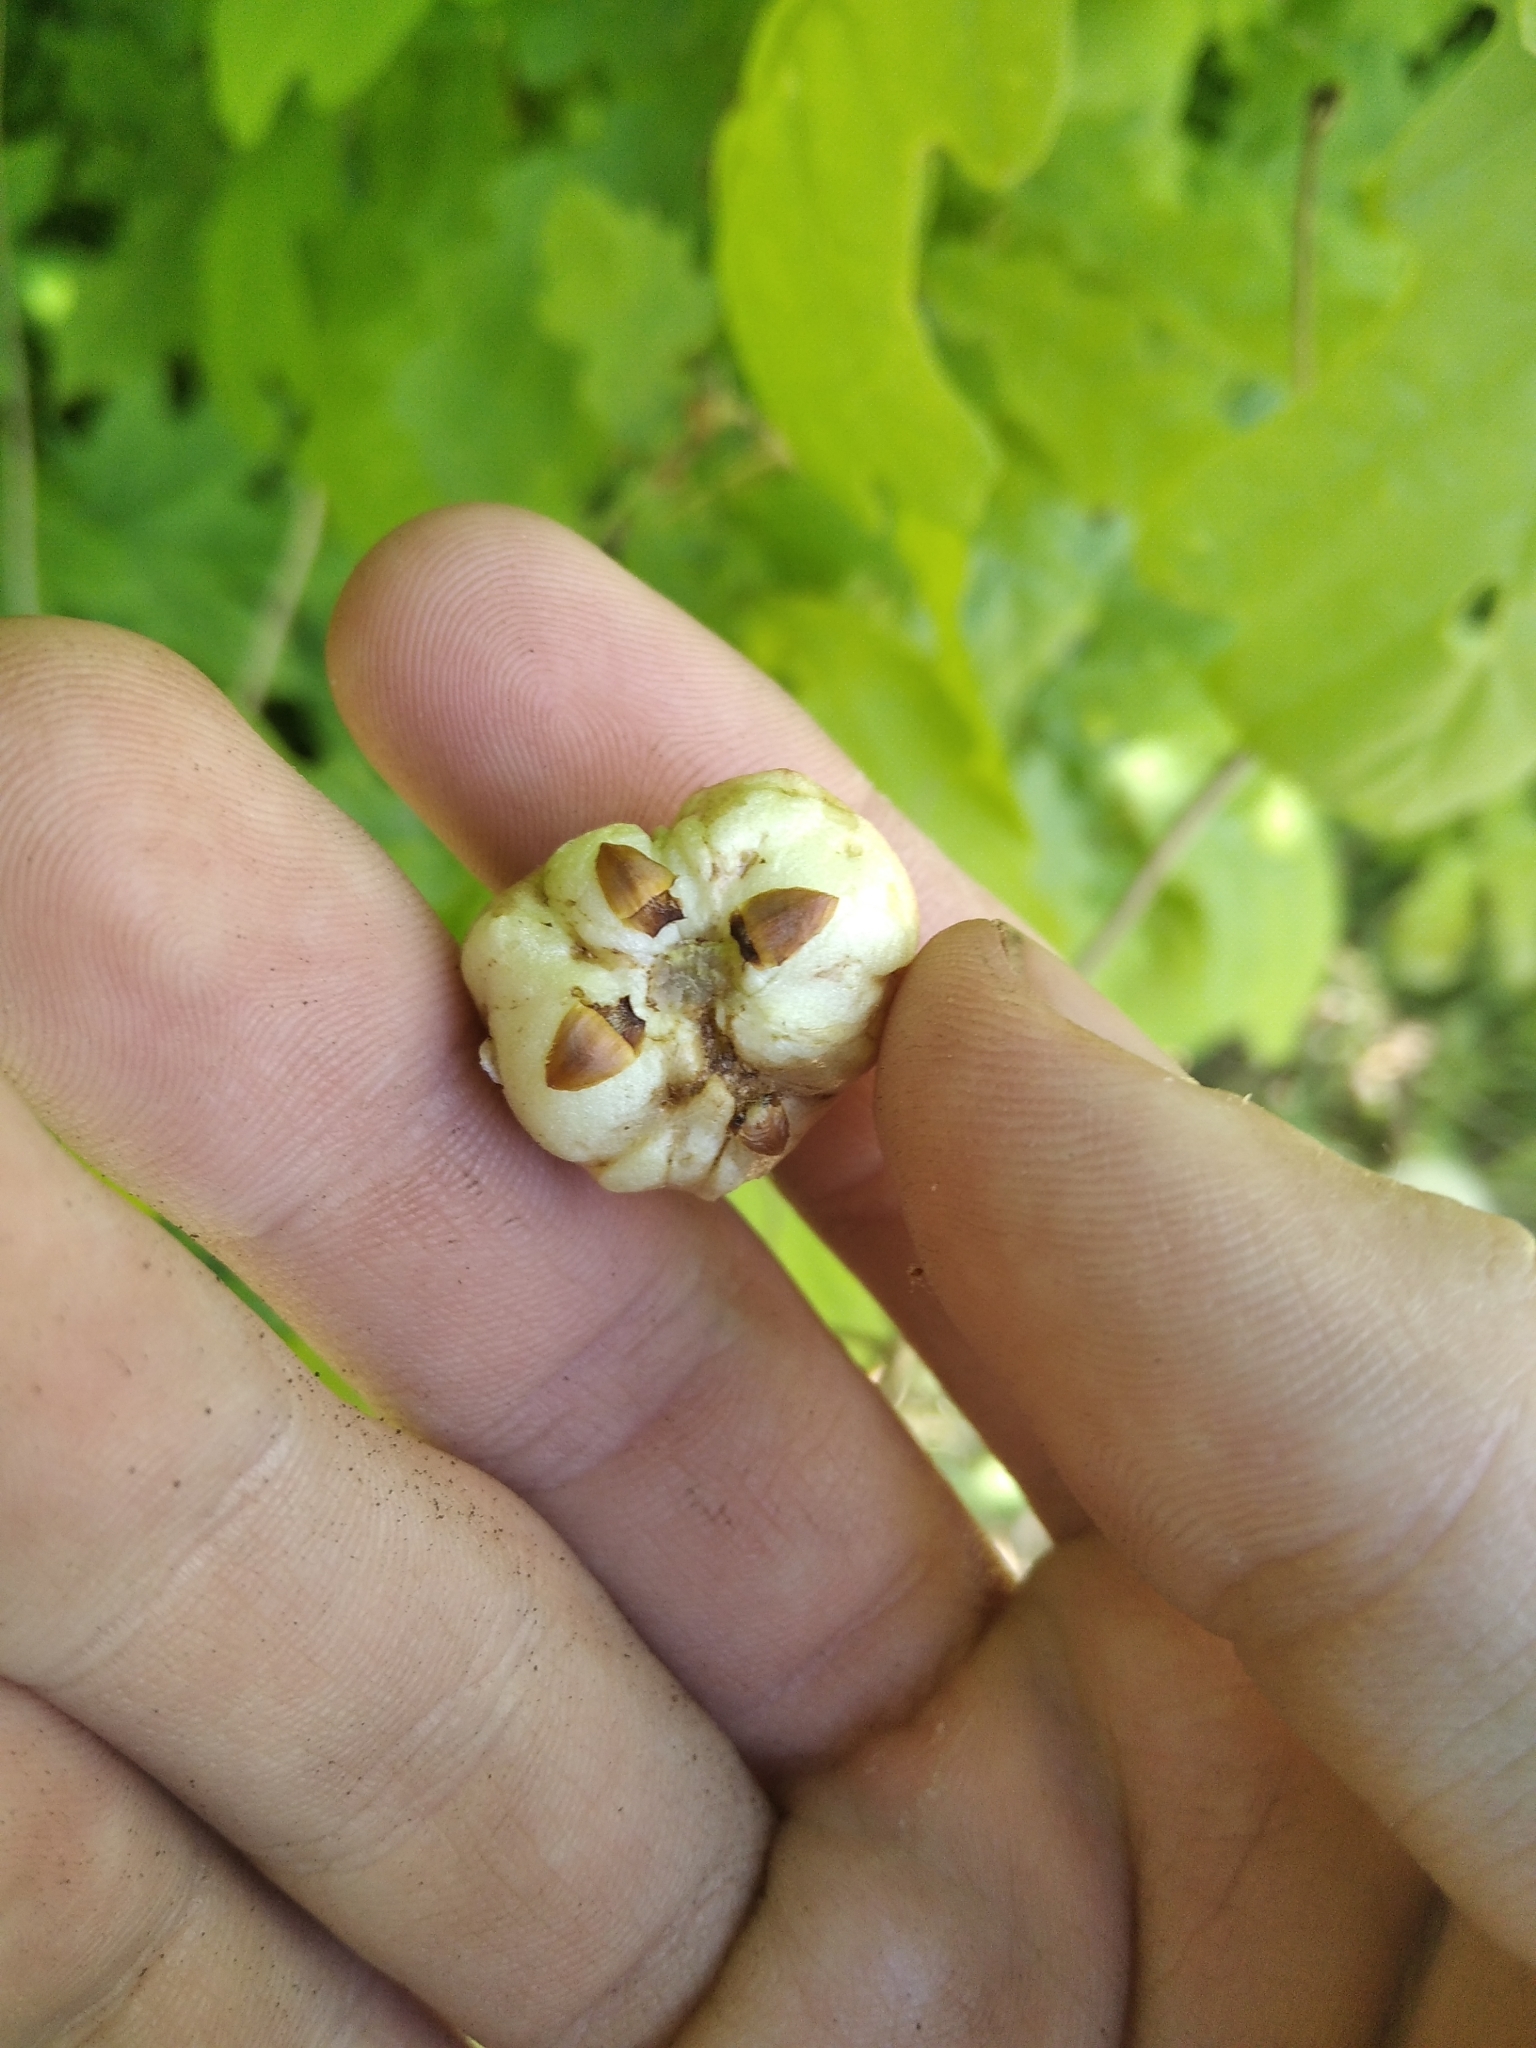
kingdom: Animalia
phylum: Arthropoda
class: Insecta
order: Hymenoptera
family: Cynipidae
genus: Biorhiza
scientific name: Biorhiza pallida
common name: Oak apple
